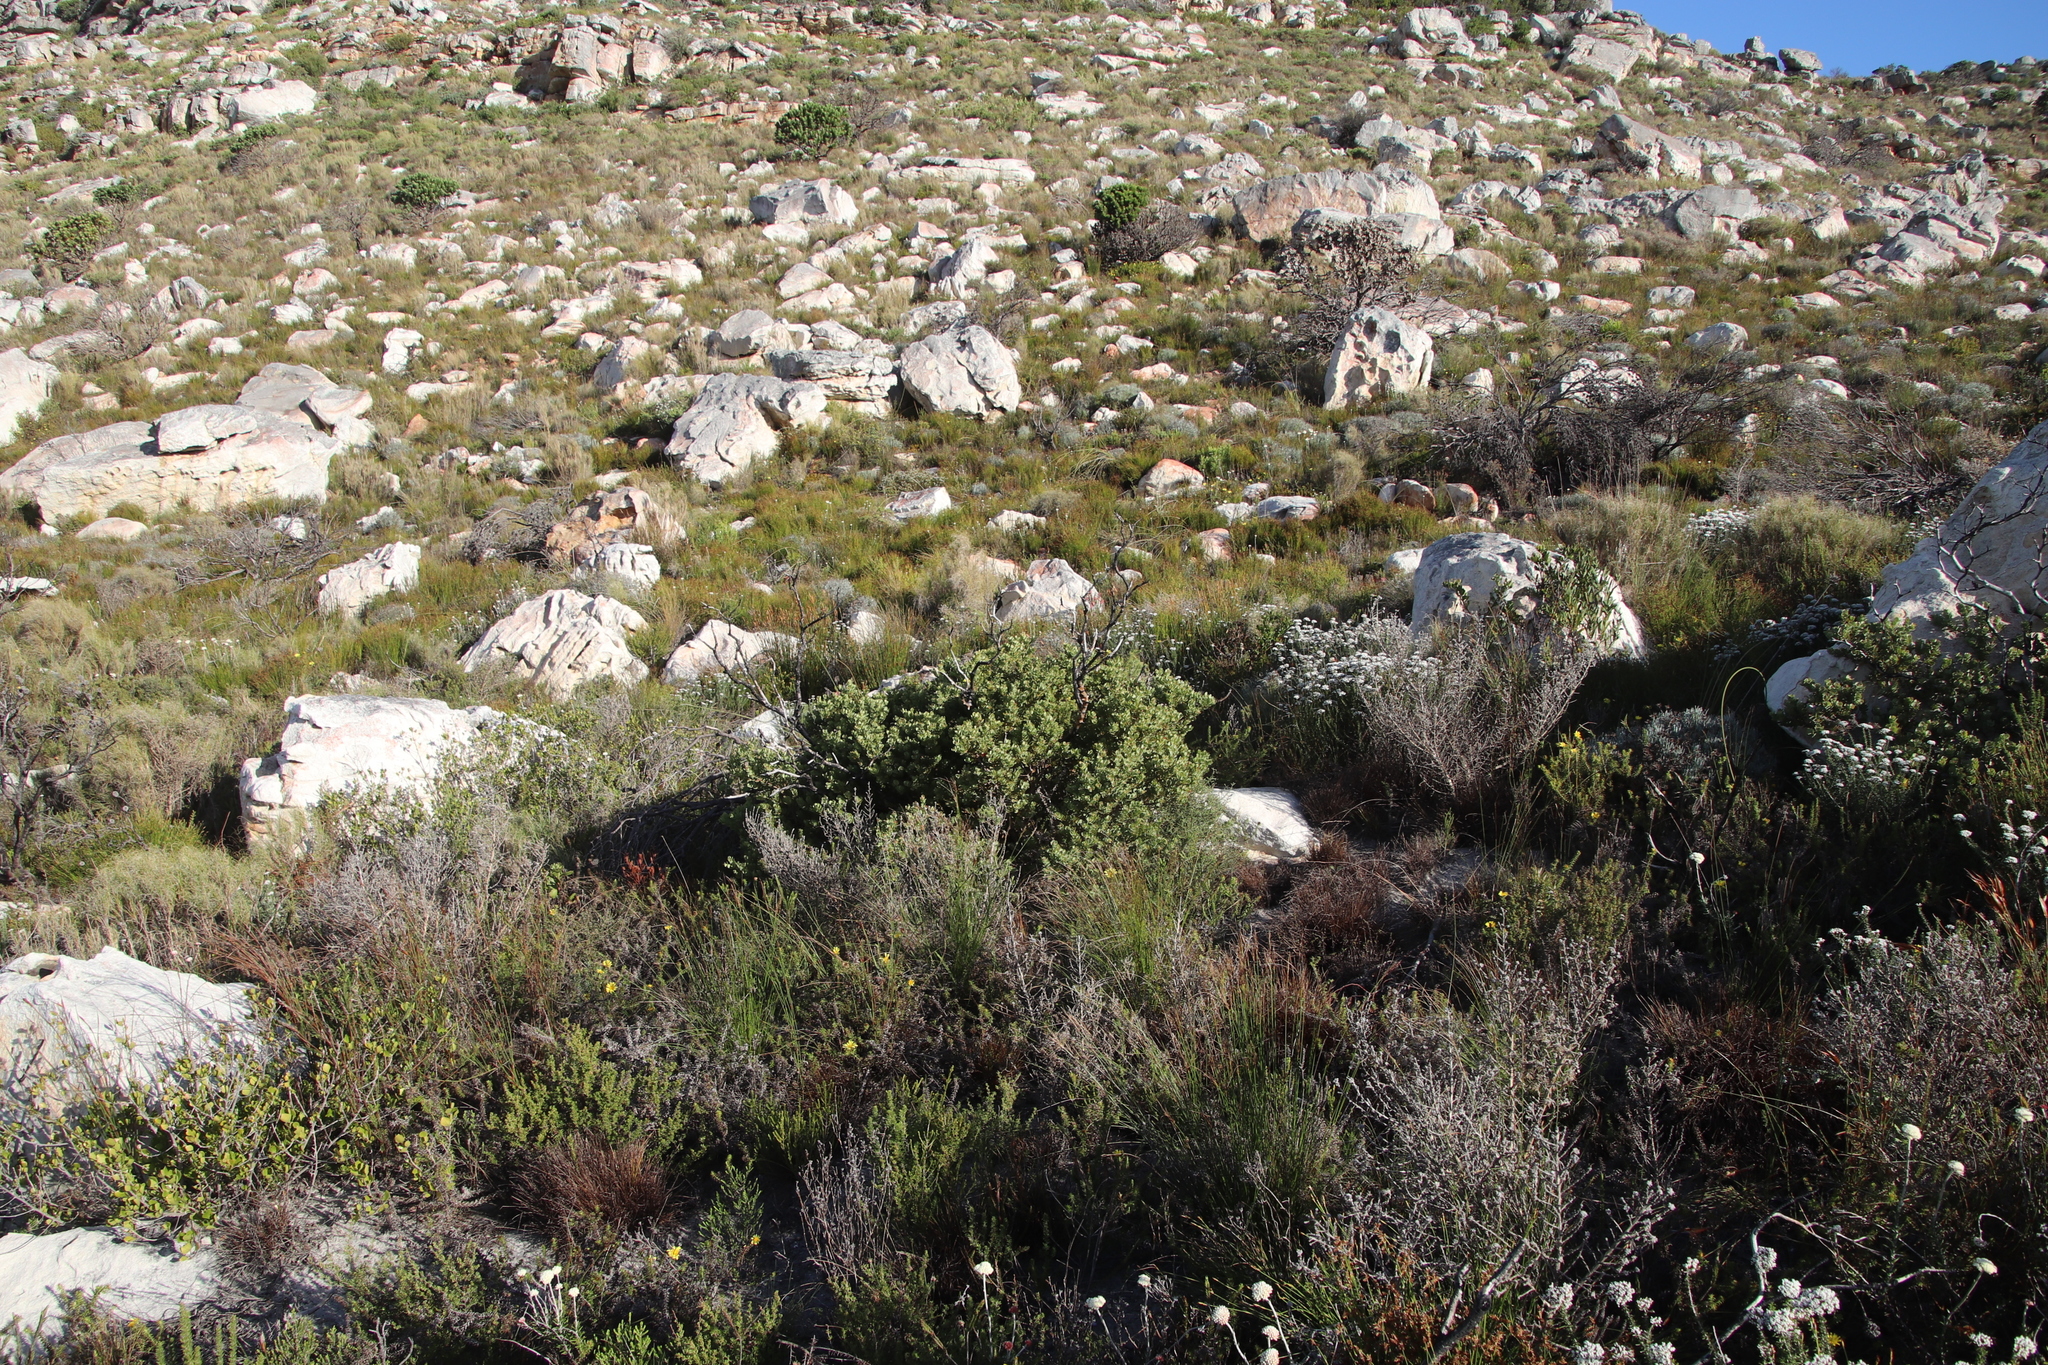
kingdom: Plantae
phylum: Tracheophyta
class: Magnoliopsida
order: Santalales
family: Santalaceae
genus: Osyris
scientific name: Osyris compressa
